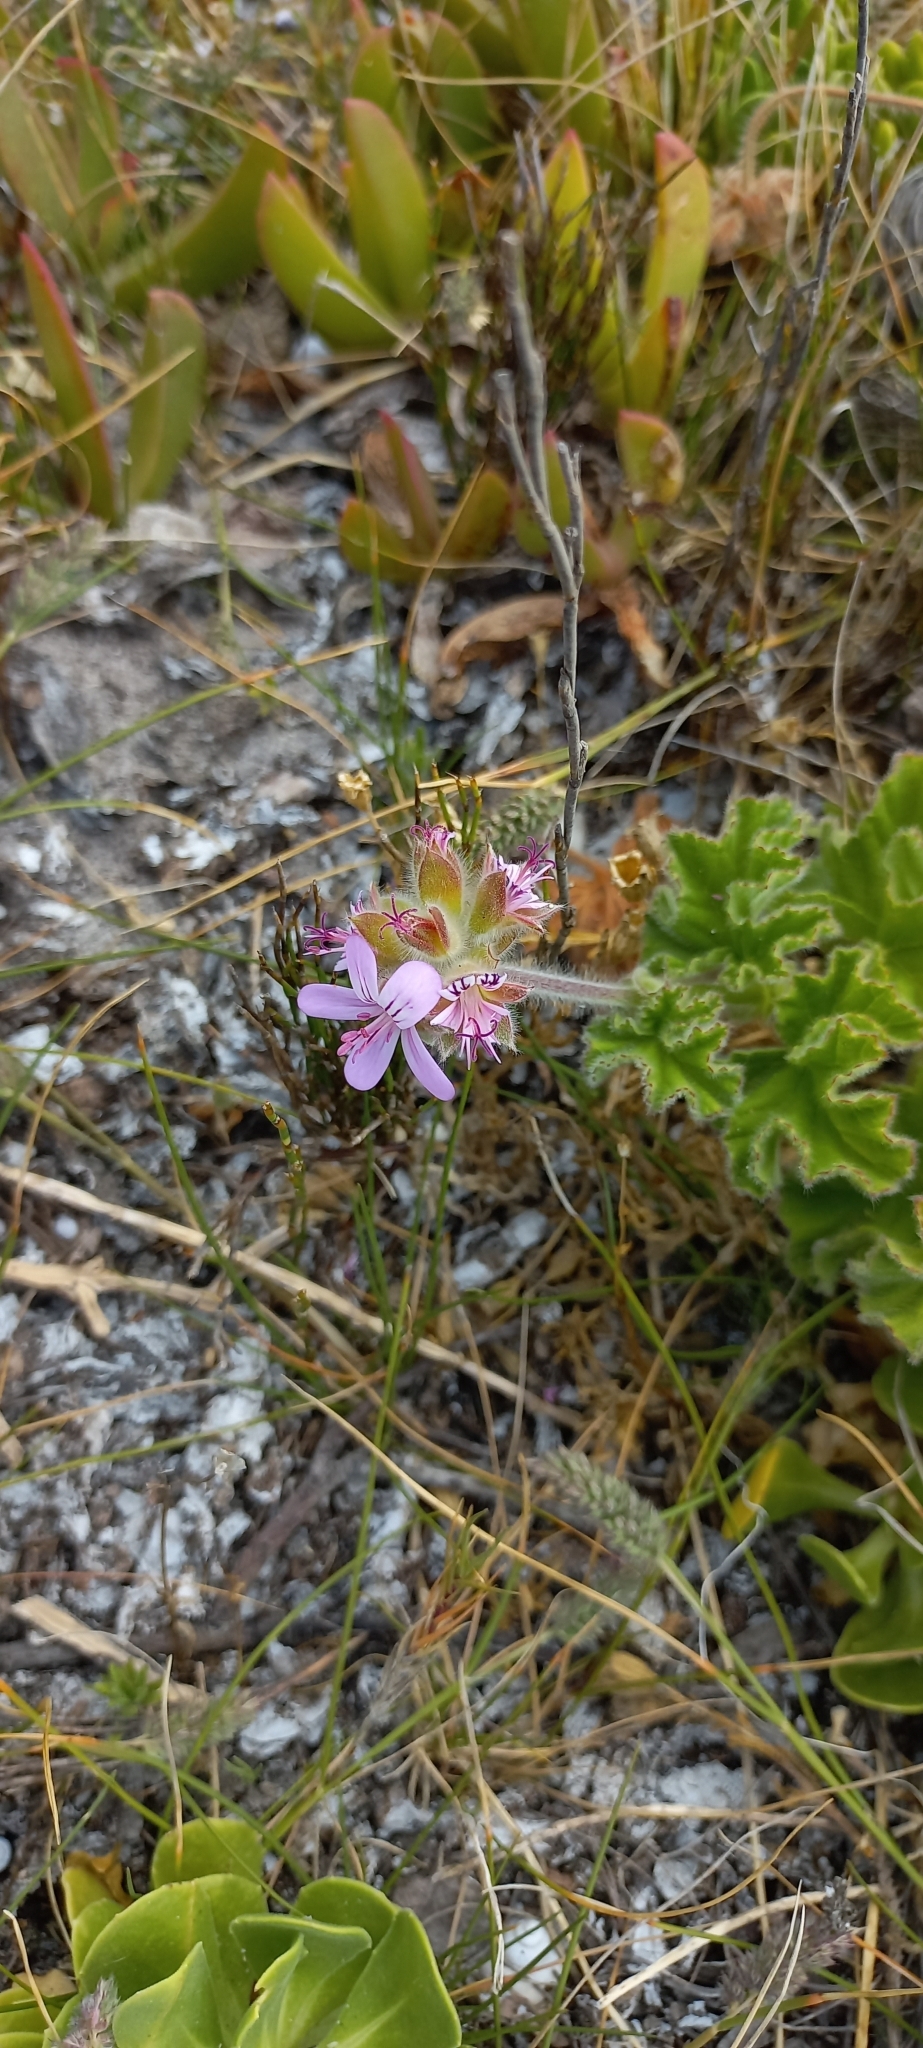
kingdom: Plantae
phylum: Tracheophyta
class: Magnoliopsida
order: Geraniales
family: Geraniaceae
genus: Pelargonium
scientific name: Pelargonium capitatum
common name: Rose scented geranium
